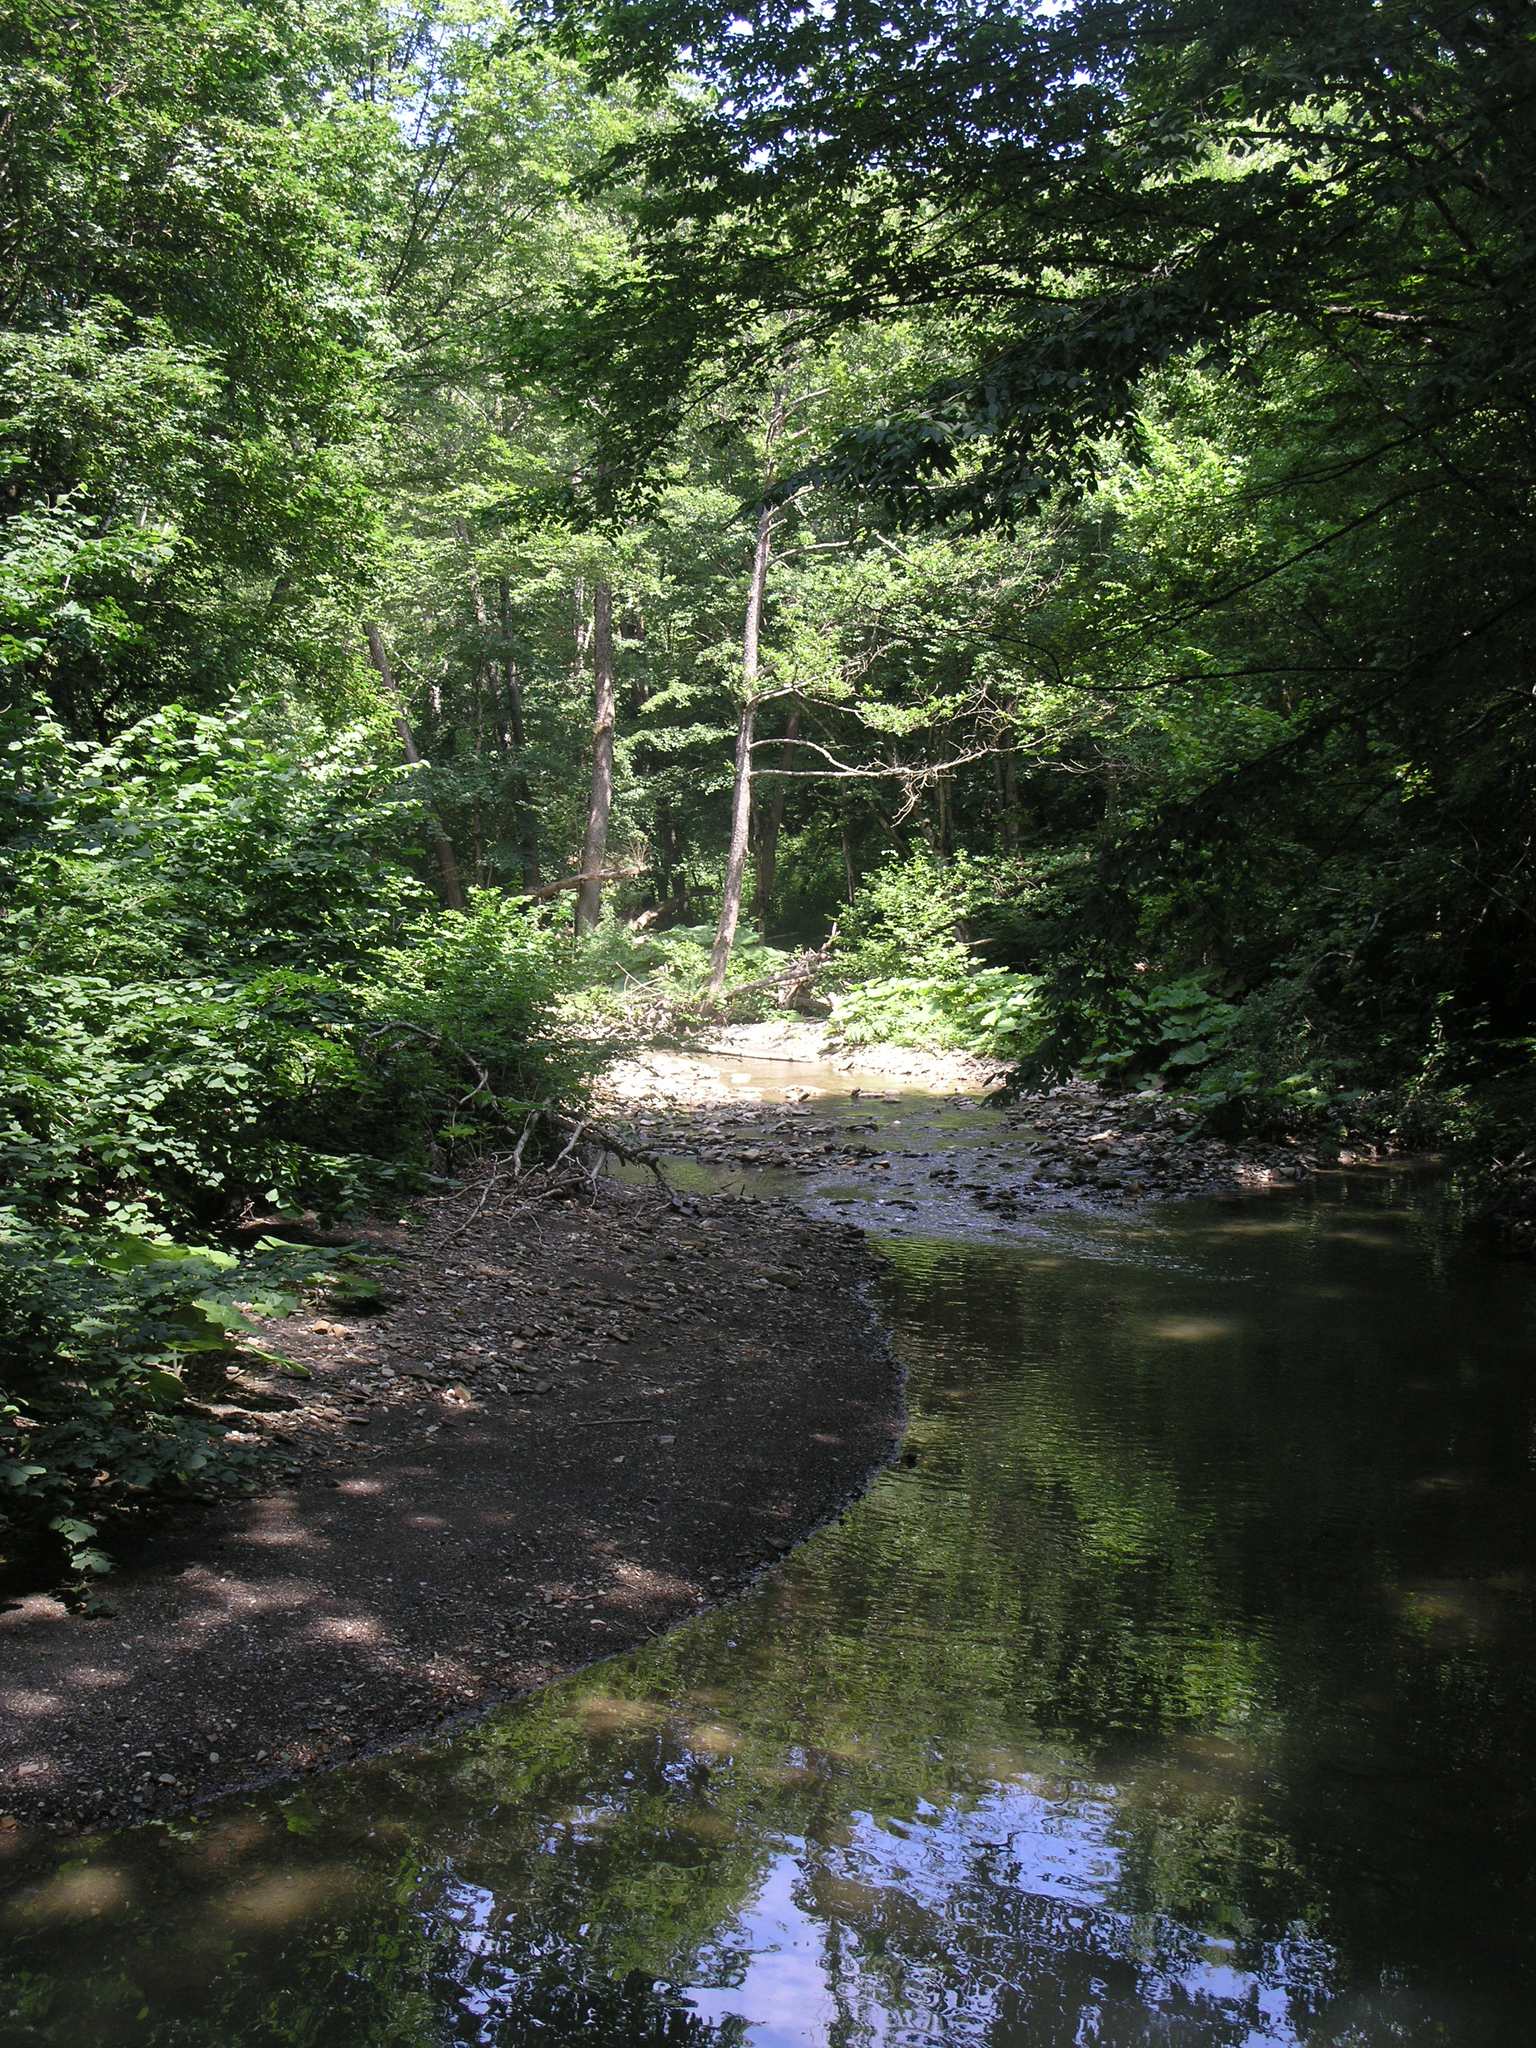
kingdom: Plantae
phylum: Tracheophyta
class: Magnoliopsida
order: Fagales
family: Fagaceae
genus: Fagus
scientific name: Fagus orientalis
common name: Oriental beech
